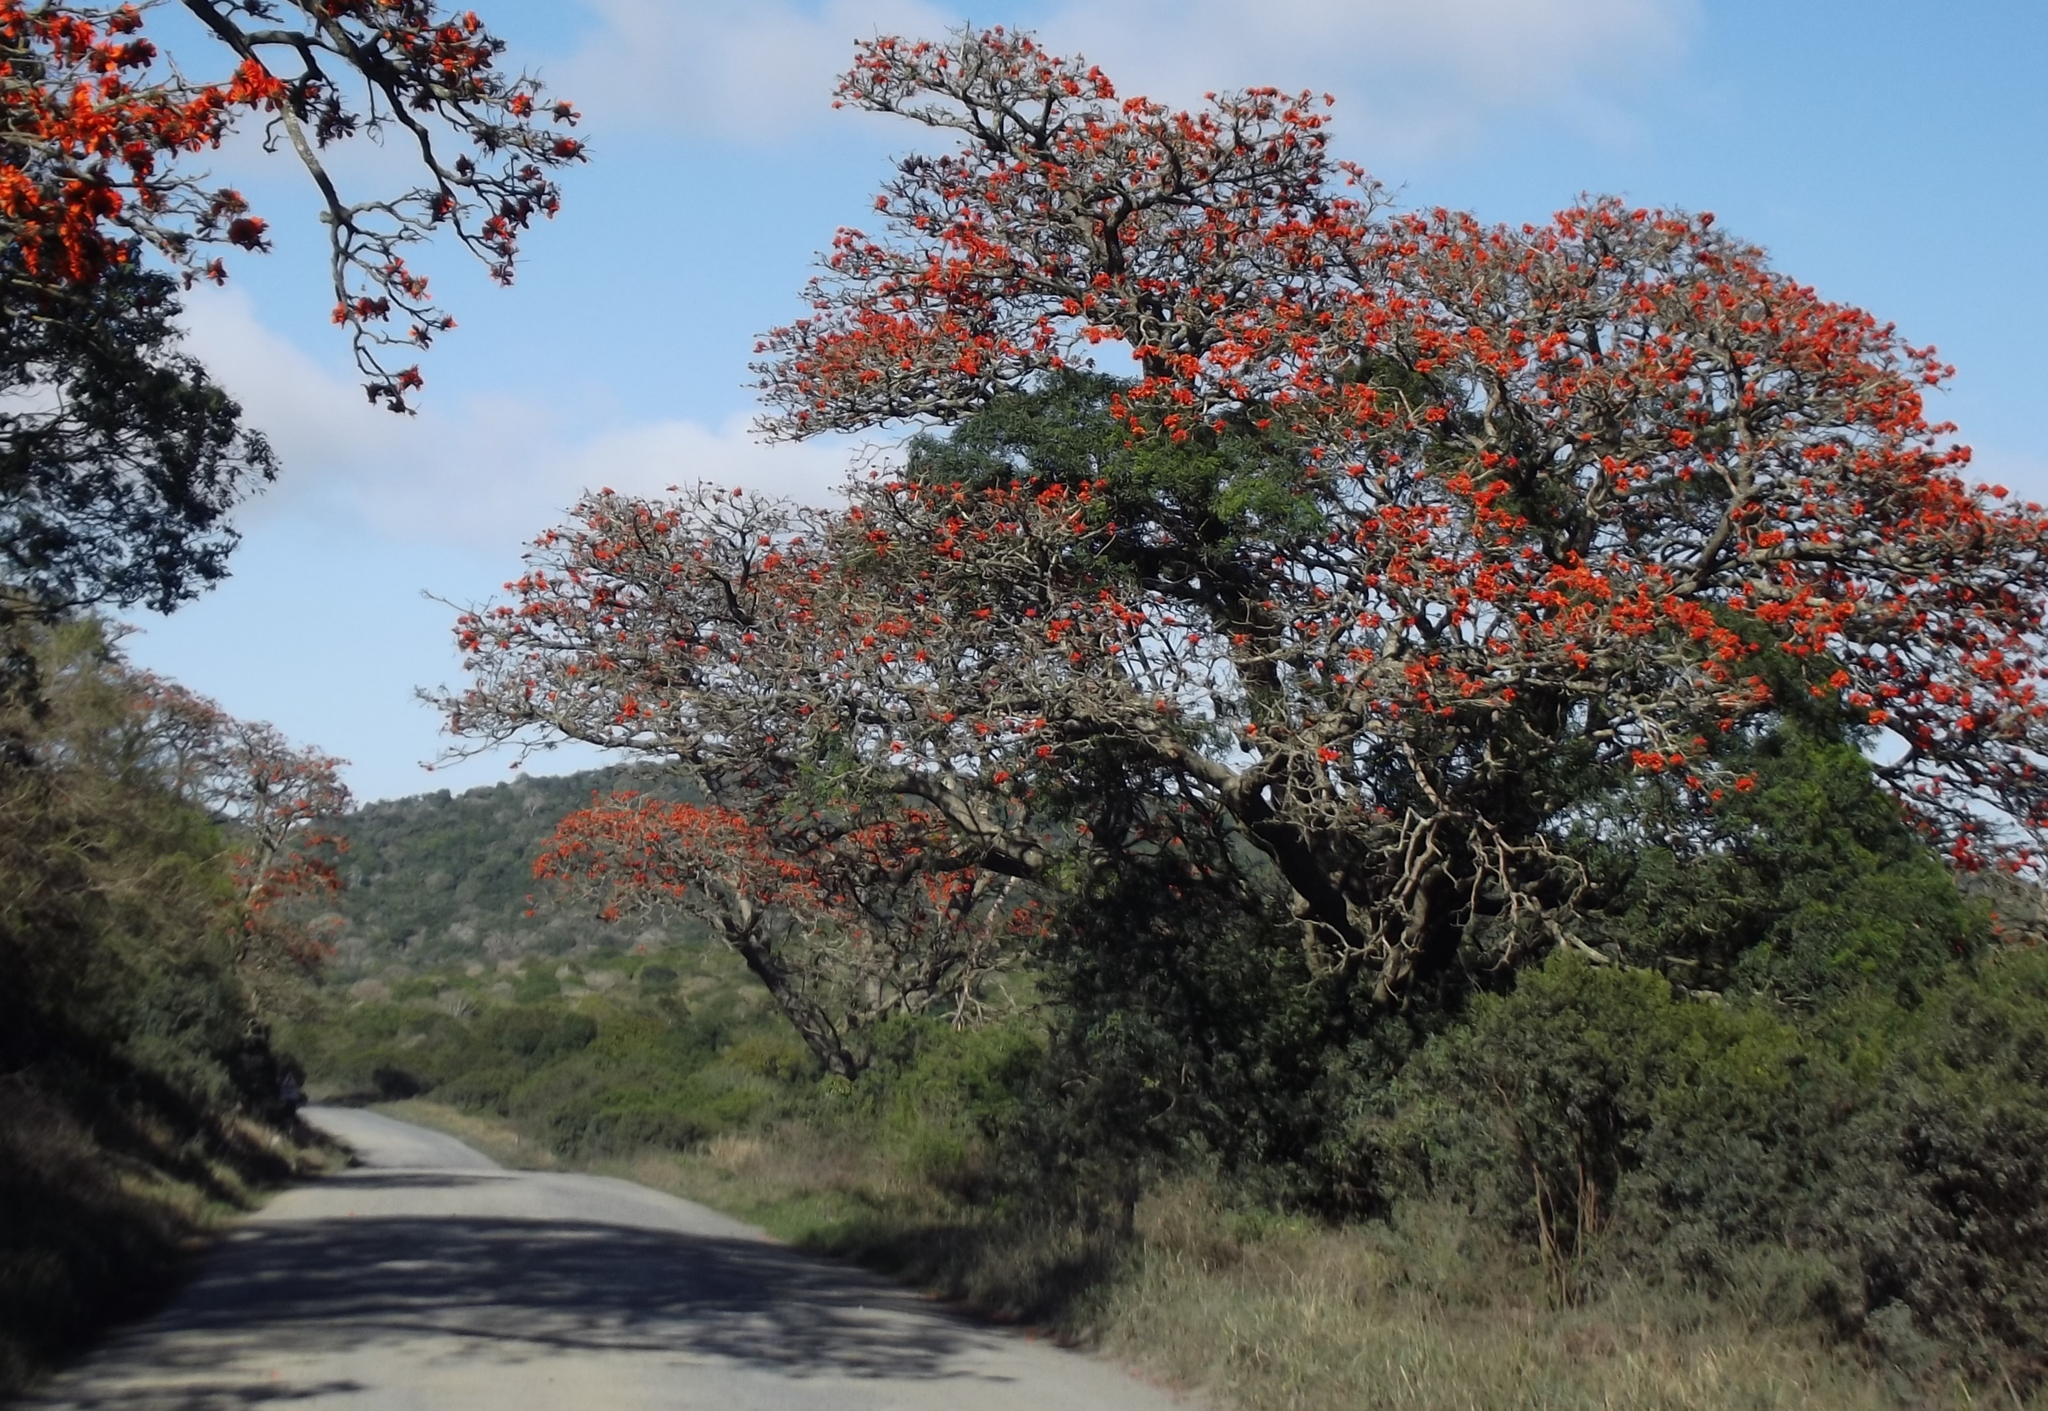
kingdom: Plantae
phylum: Tracheophyta
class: Magnoliopsida
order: Fabales
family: Fabaceae
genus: Erythrina
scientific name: Erythrina caffra
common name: Coast coral tree
